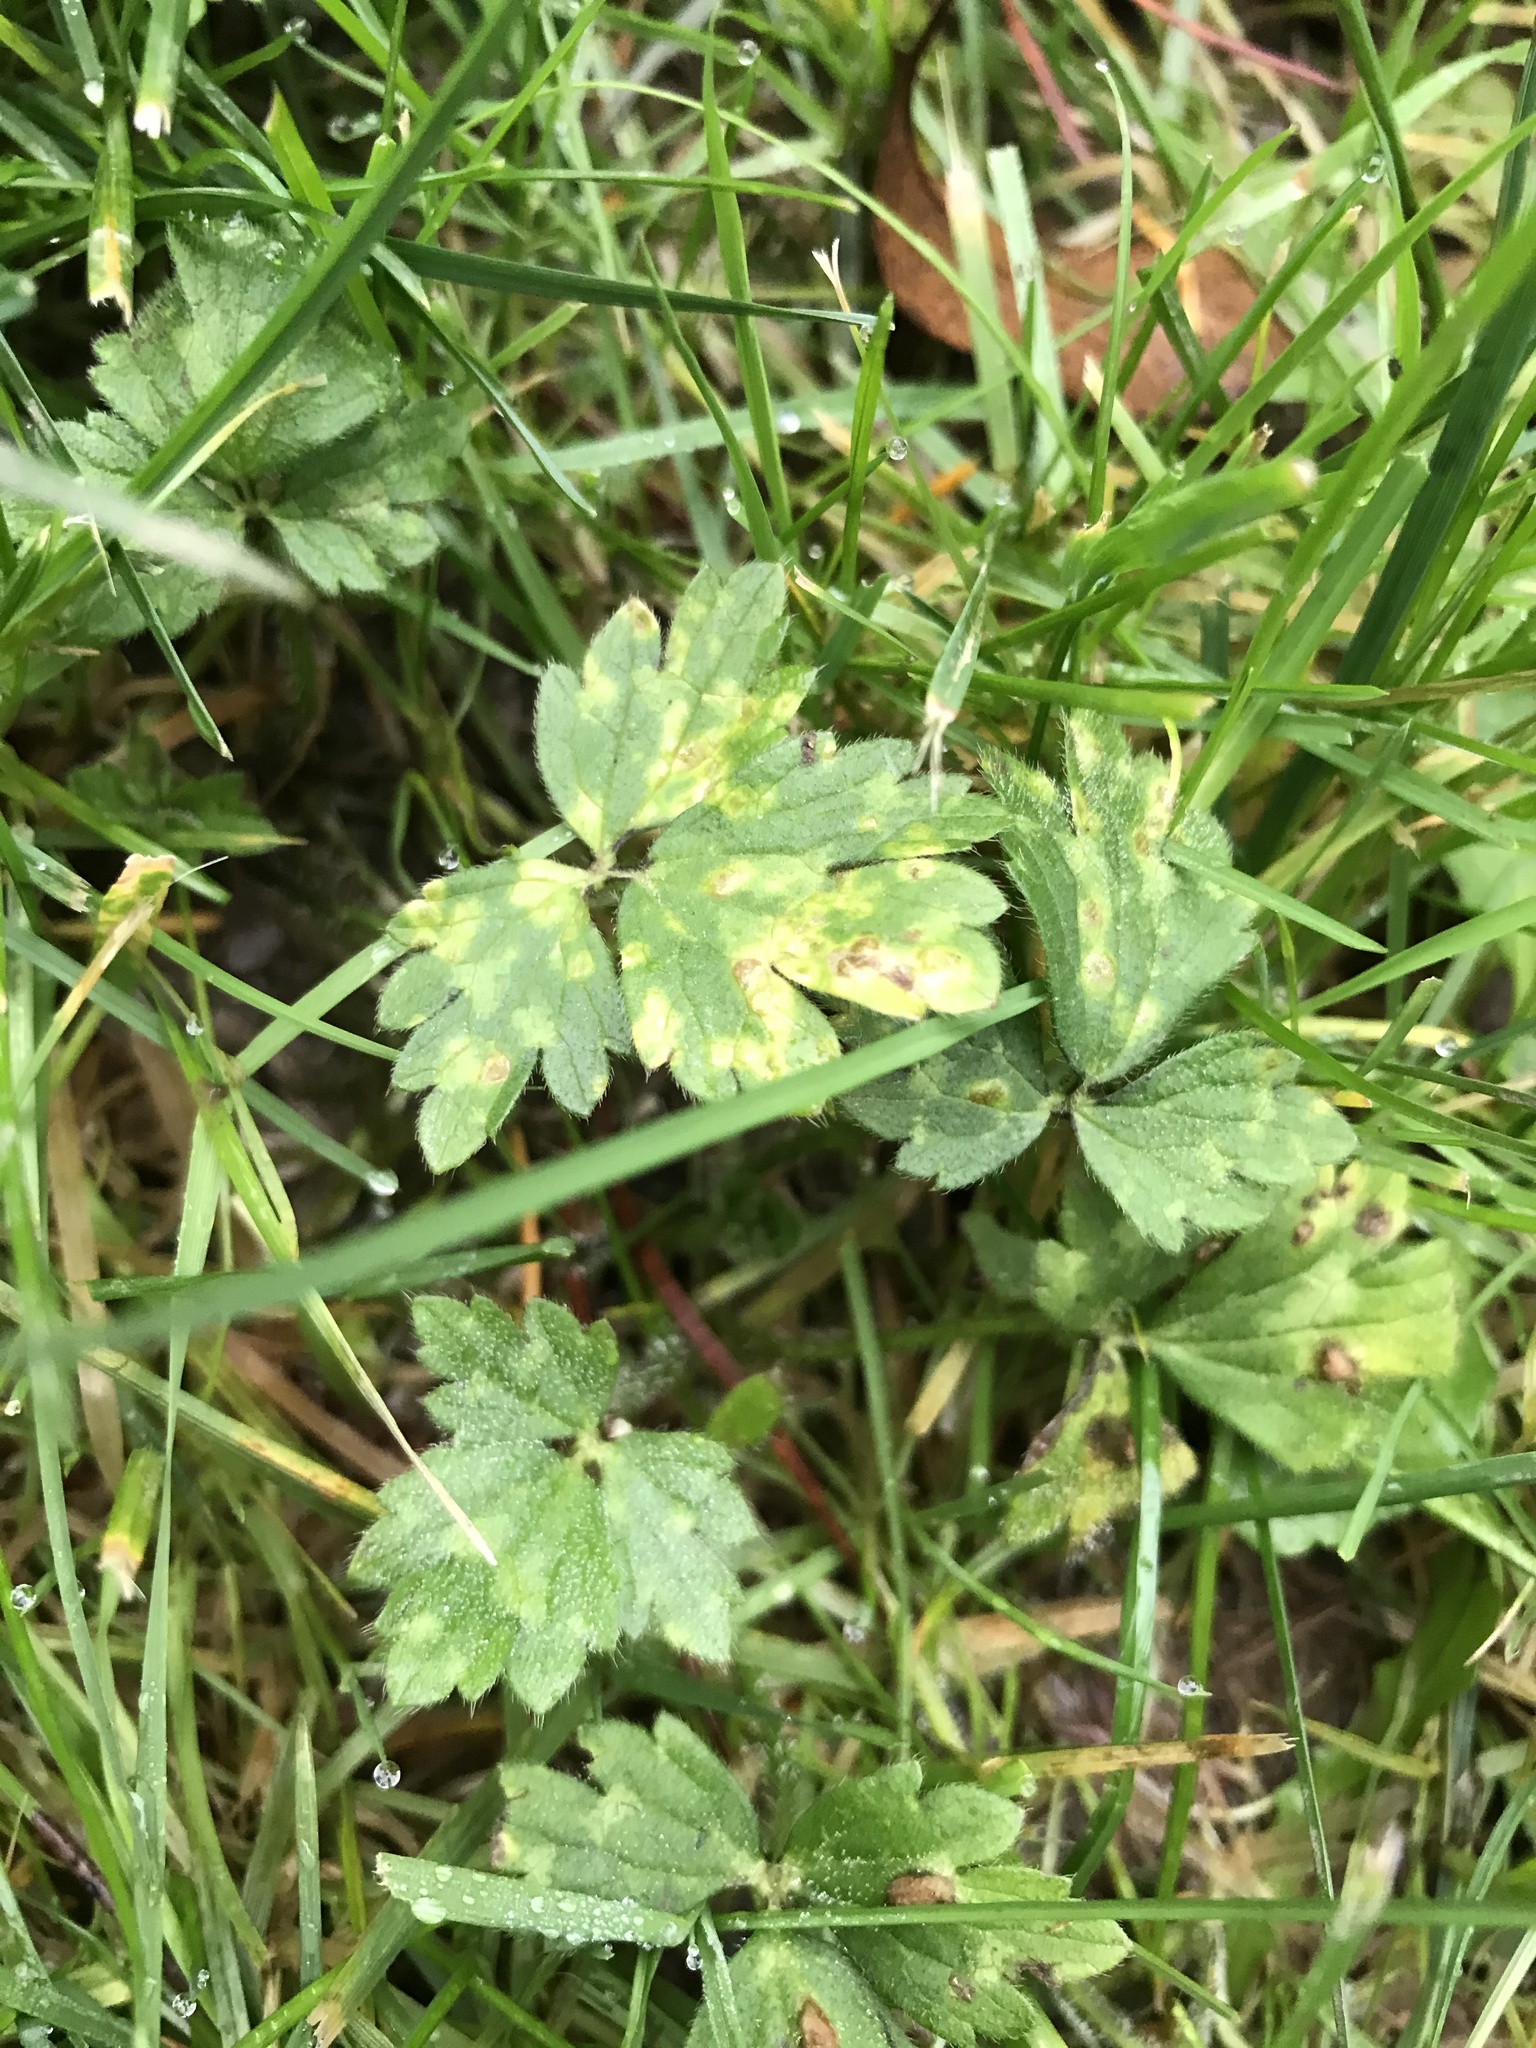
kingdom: Plantae
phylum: Tracheophyta
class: Magnoliopsida
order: Ranunculales
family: Ranunculaceae
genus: Ranunculus
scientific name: Ranunculus repens
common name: Creeping buttercup
